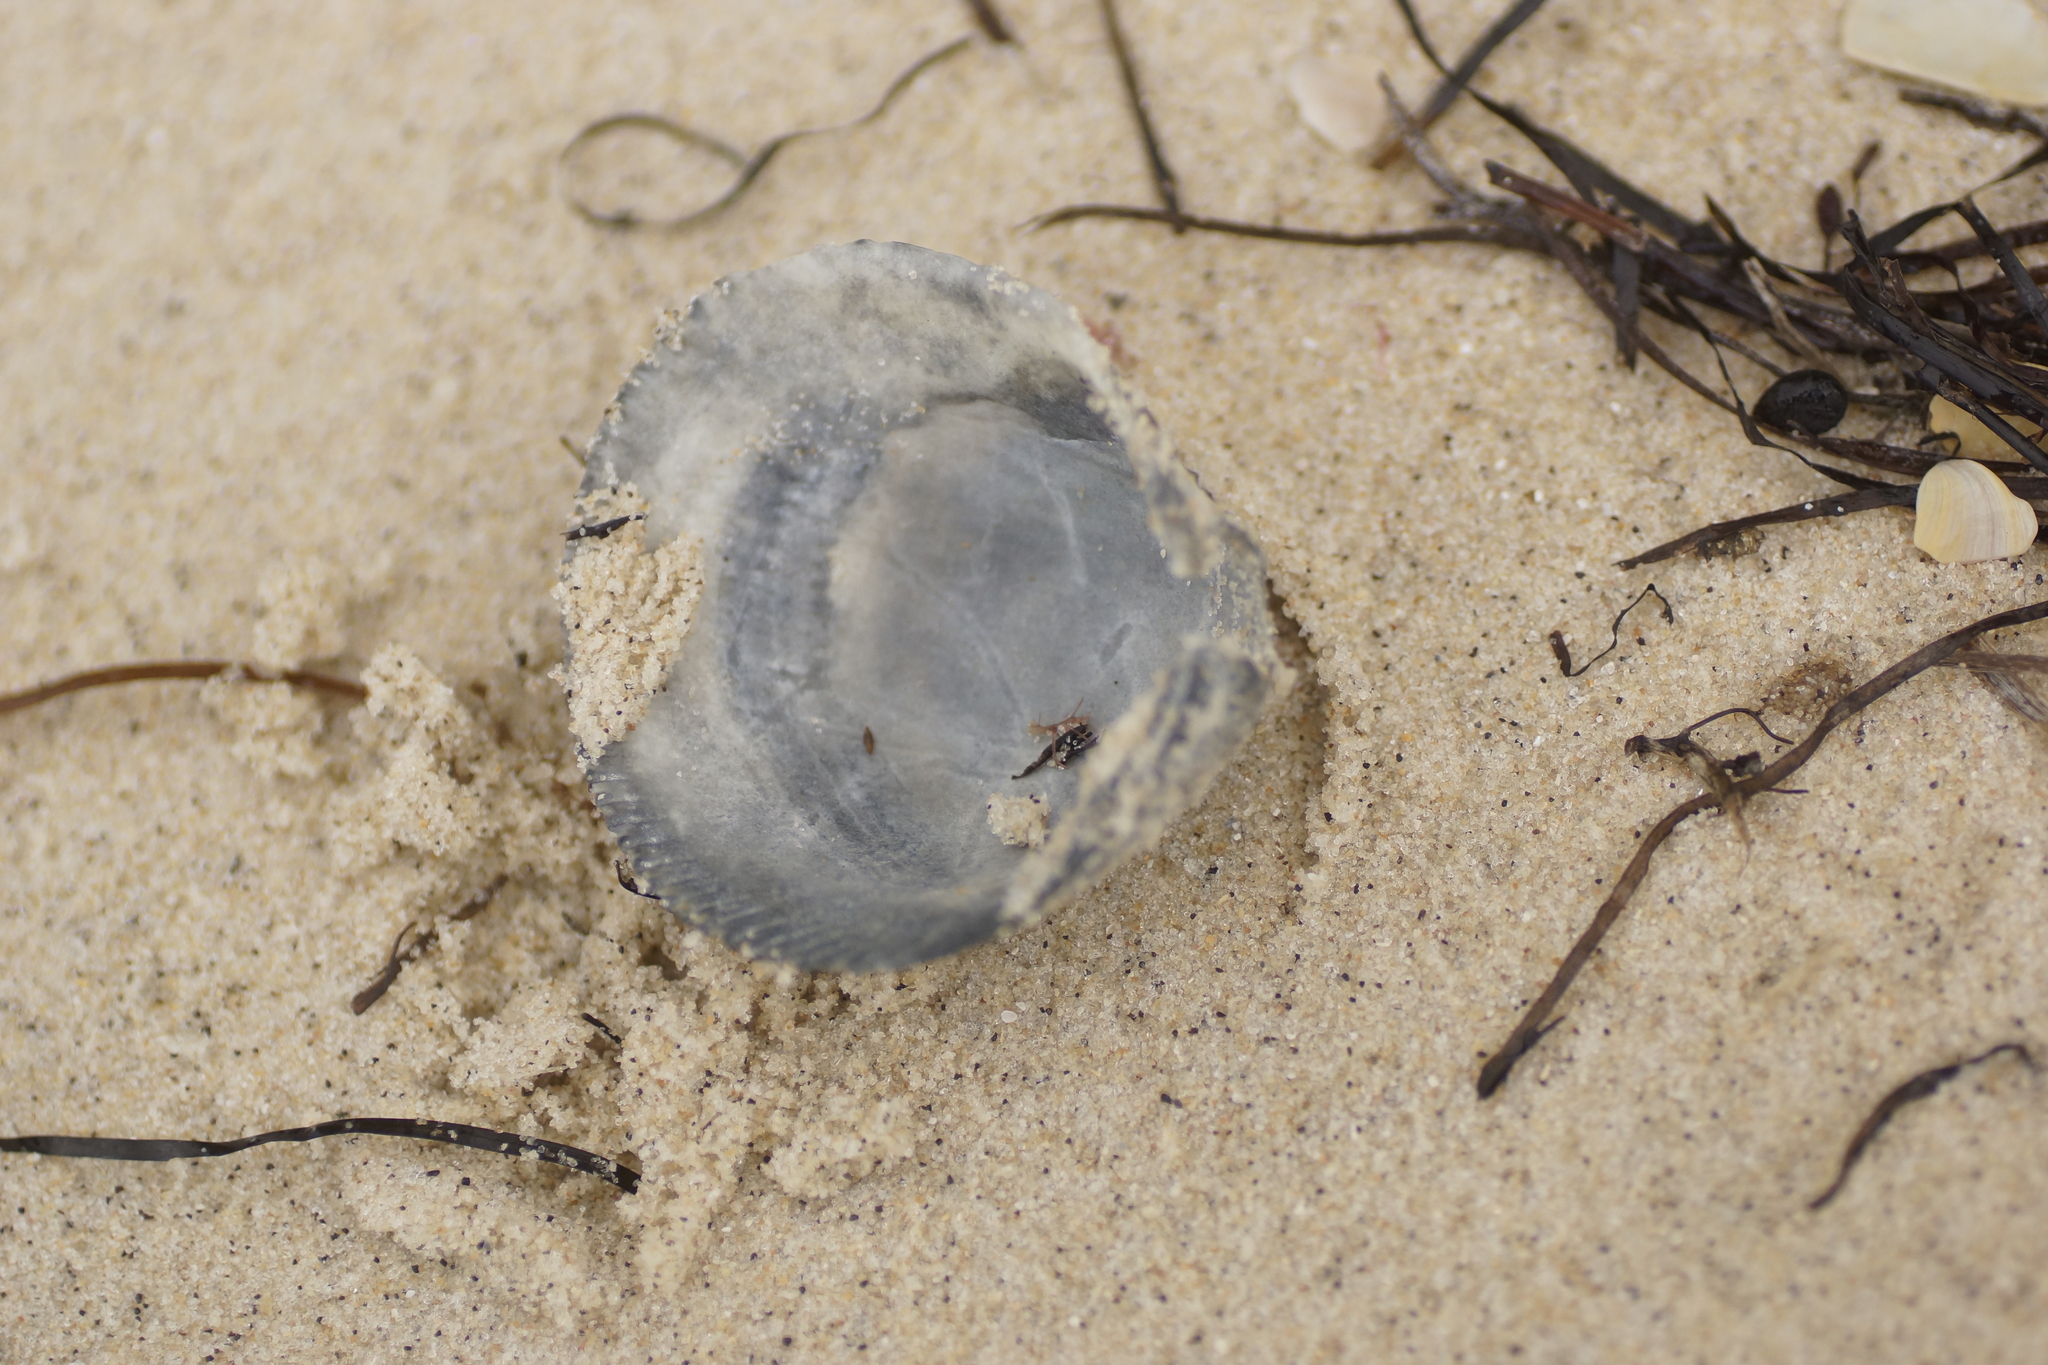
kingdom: Animalia
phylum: Mollusca
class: Bivalvia
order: Cardiida
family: Cardiidae
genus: Fulvia
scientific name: Fulvia tenuicostata
